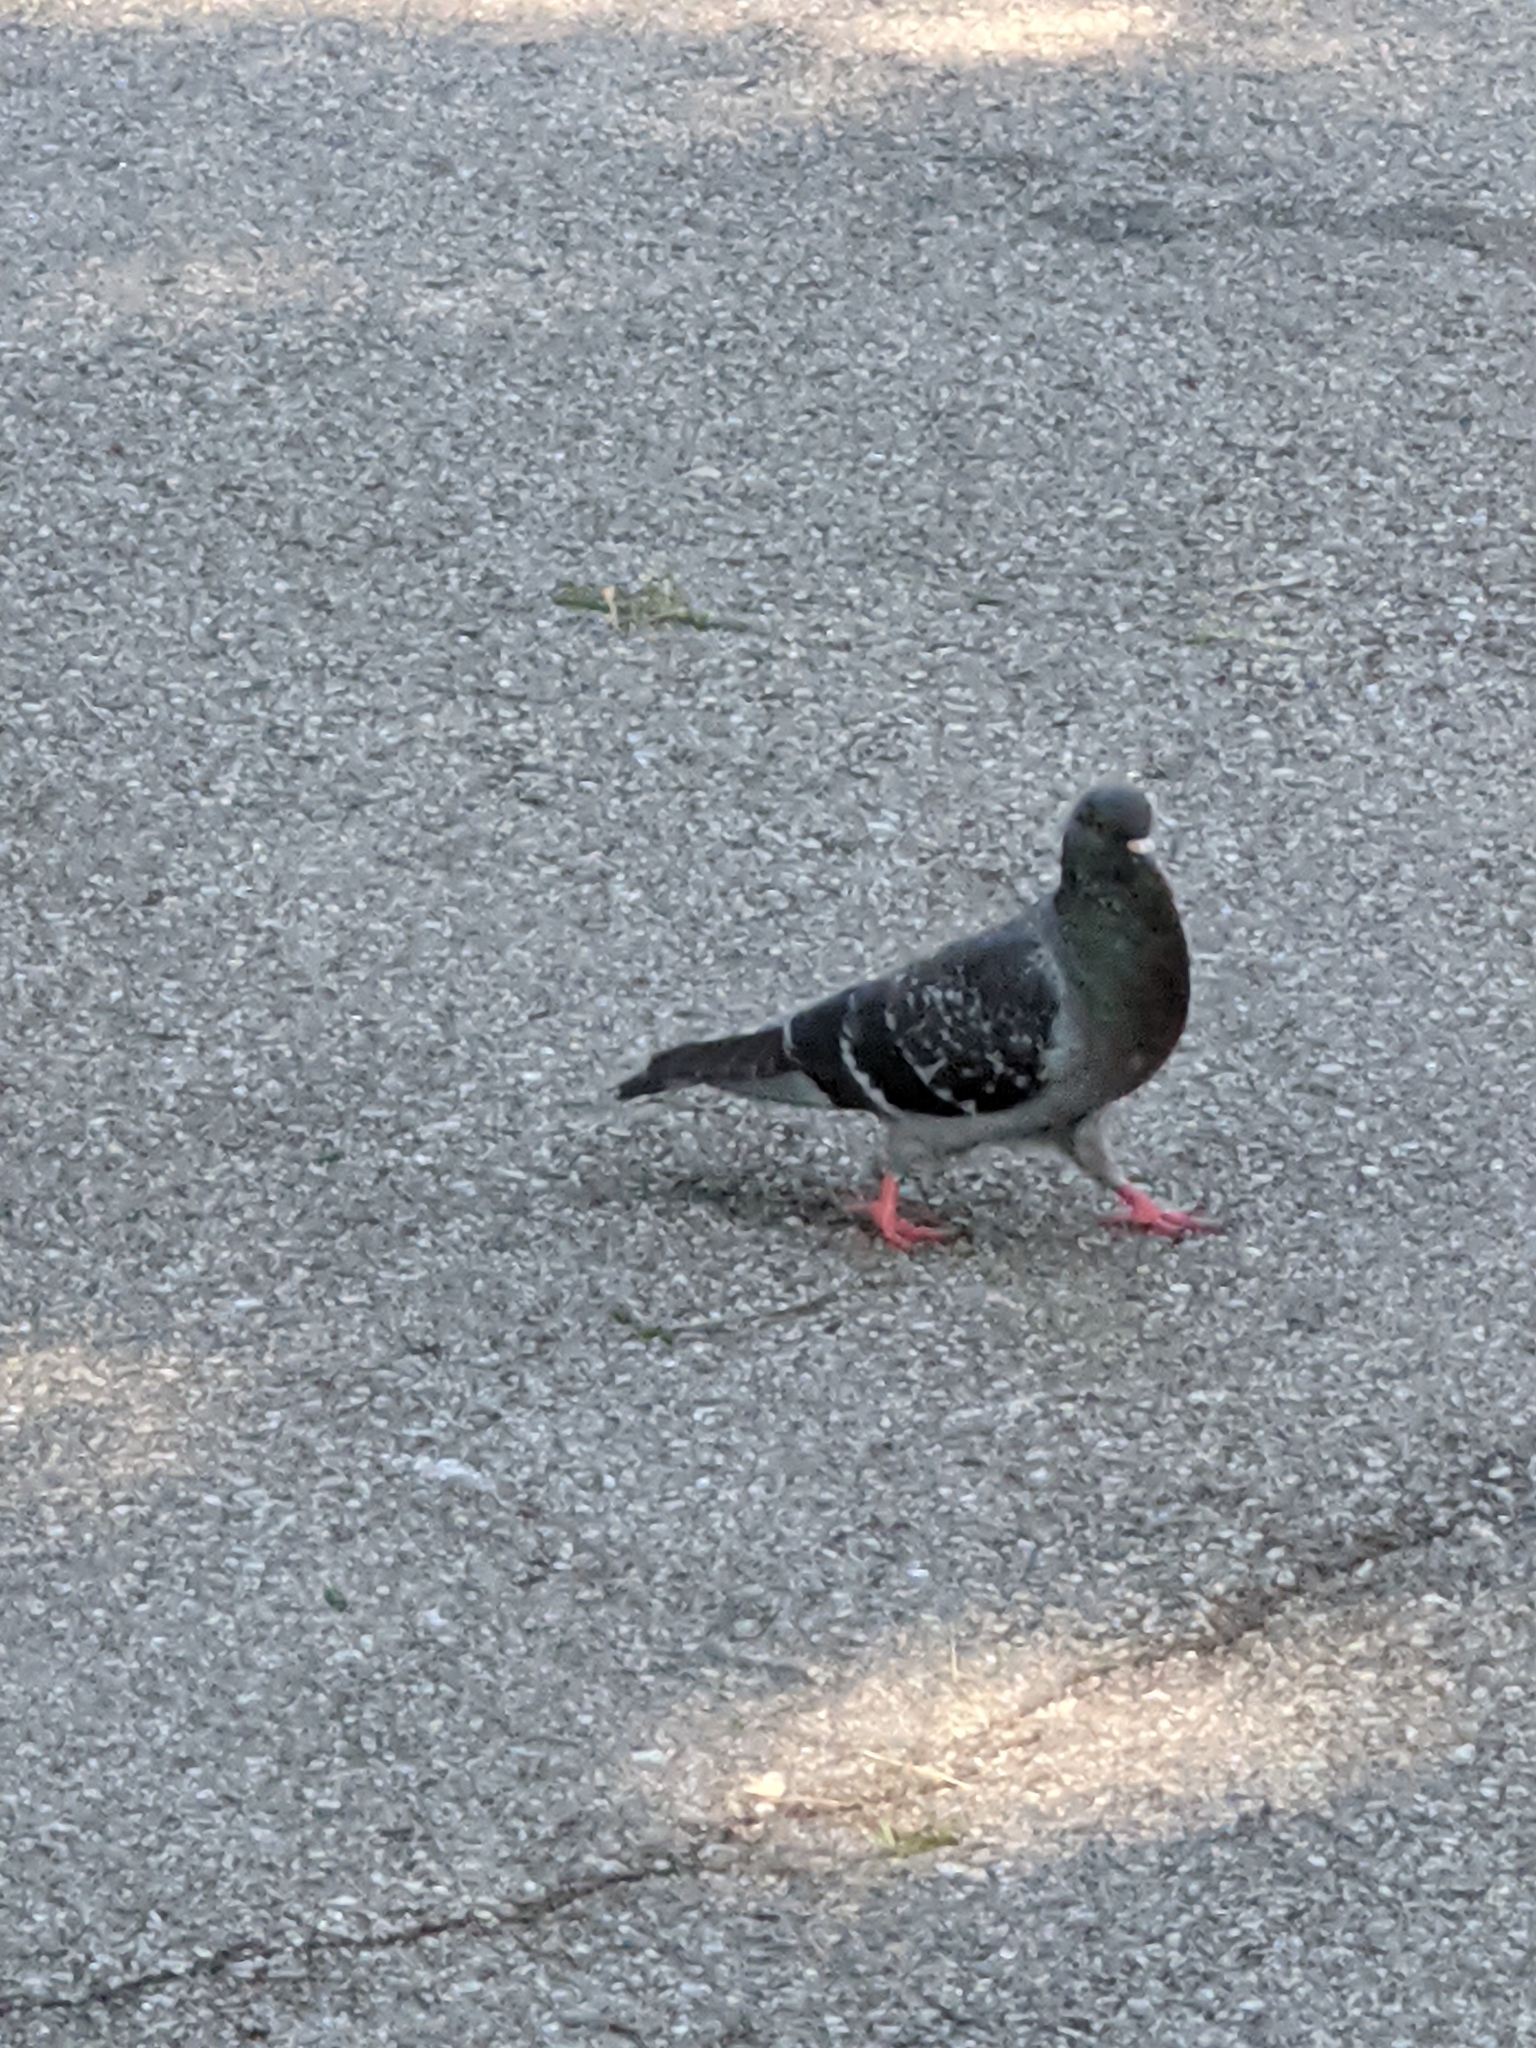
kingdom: Animalia
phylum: Chordata
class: Aves
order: Columbiformes
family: Columbidae
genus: Columba
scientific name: Columba livia
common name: Rock pigeon
